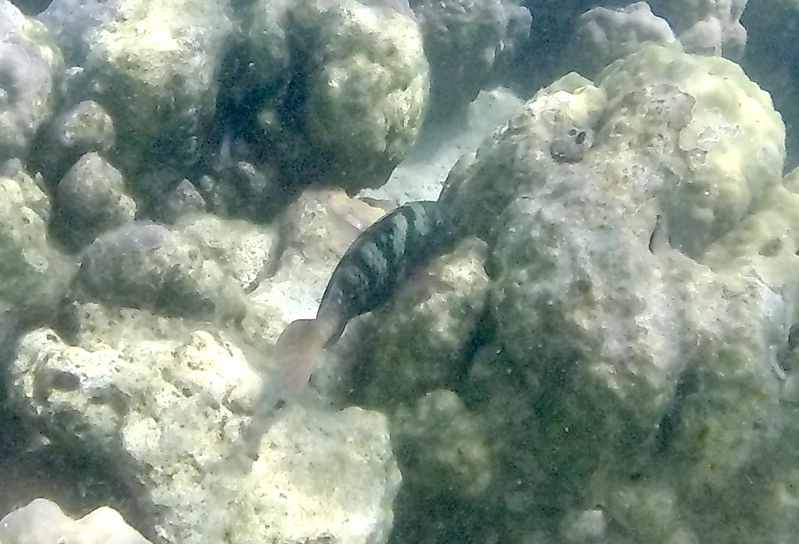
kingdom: Animalia
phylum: Chordata
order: Perciformes
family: Scaridae
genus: Chlorurus
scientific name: Chlorurus bleekeri
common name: Bleeker's parrotfish
